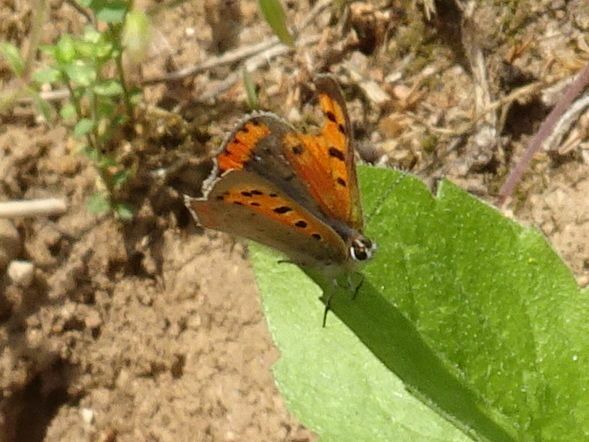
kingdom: Animalia
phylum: Arthropoda
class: Insecta
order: Lepidoptera
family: Lycaenidae
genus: Lycaena
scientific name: Lycaena phlaeas
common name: Small copper
